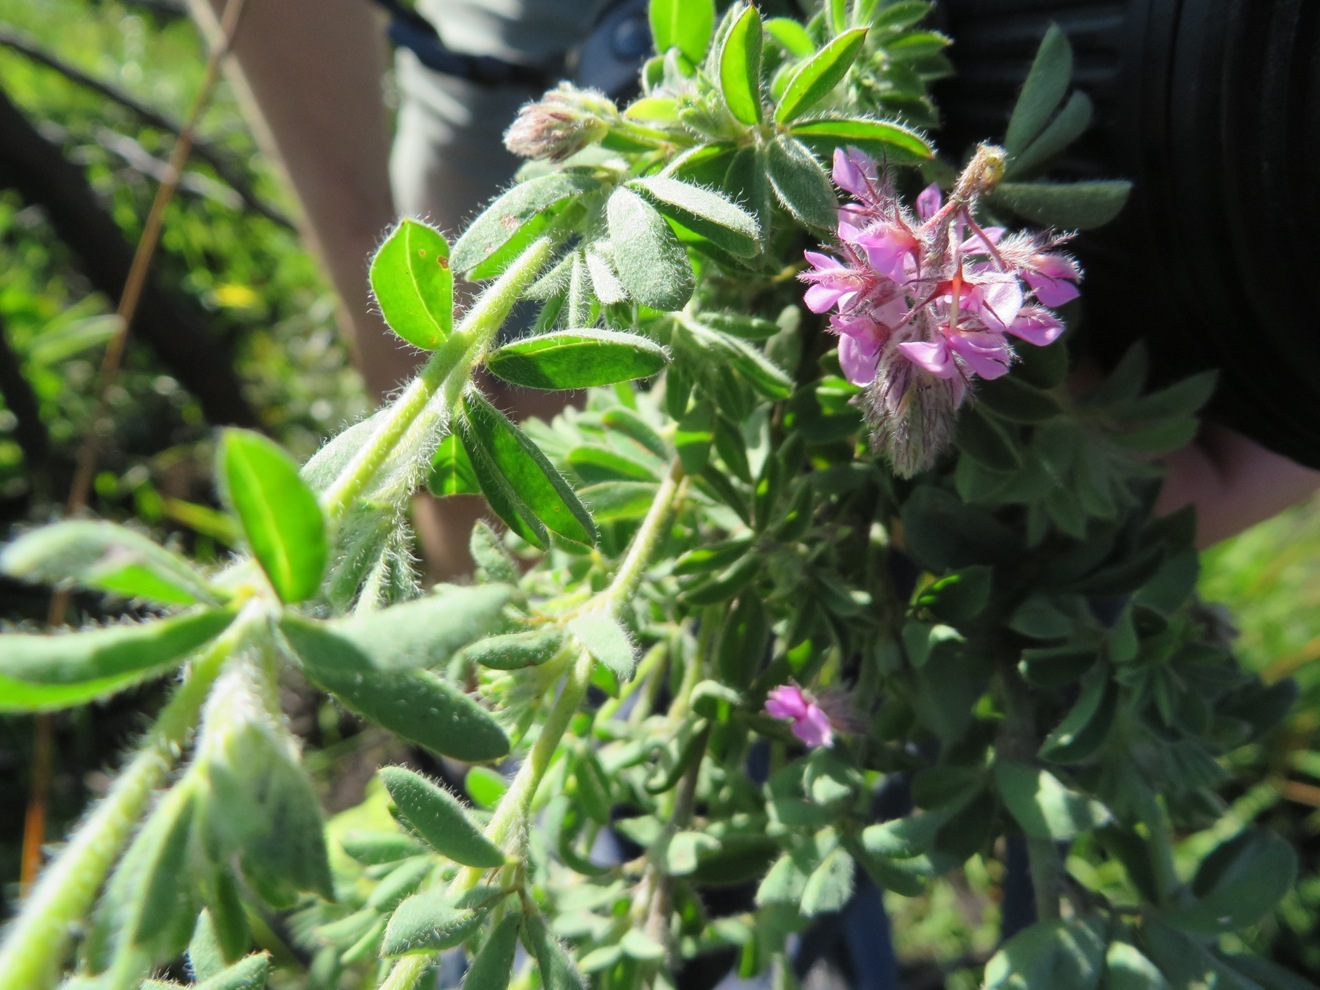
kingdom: Plantae
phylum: Tracheophyta
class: Magnoliopsida
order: Fabales
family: Fabaceae
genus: Indigofera
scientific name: Indigofera alopecuroides
